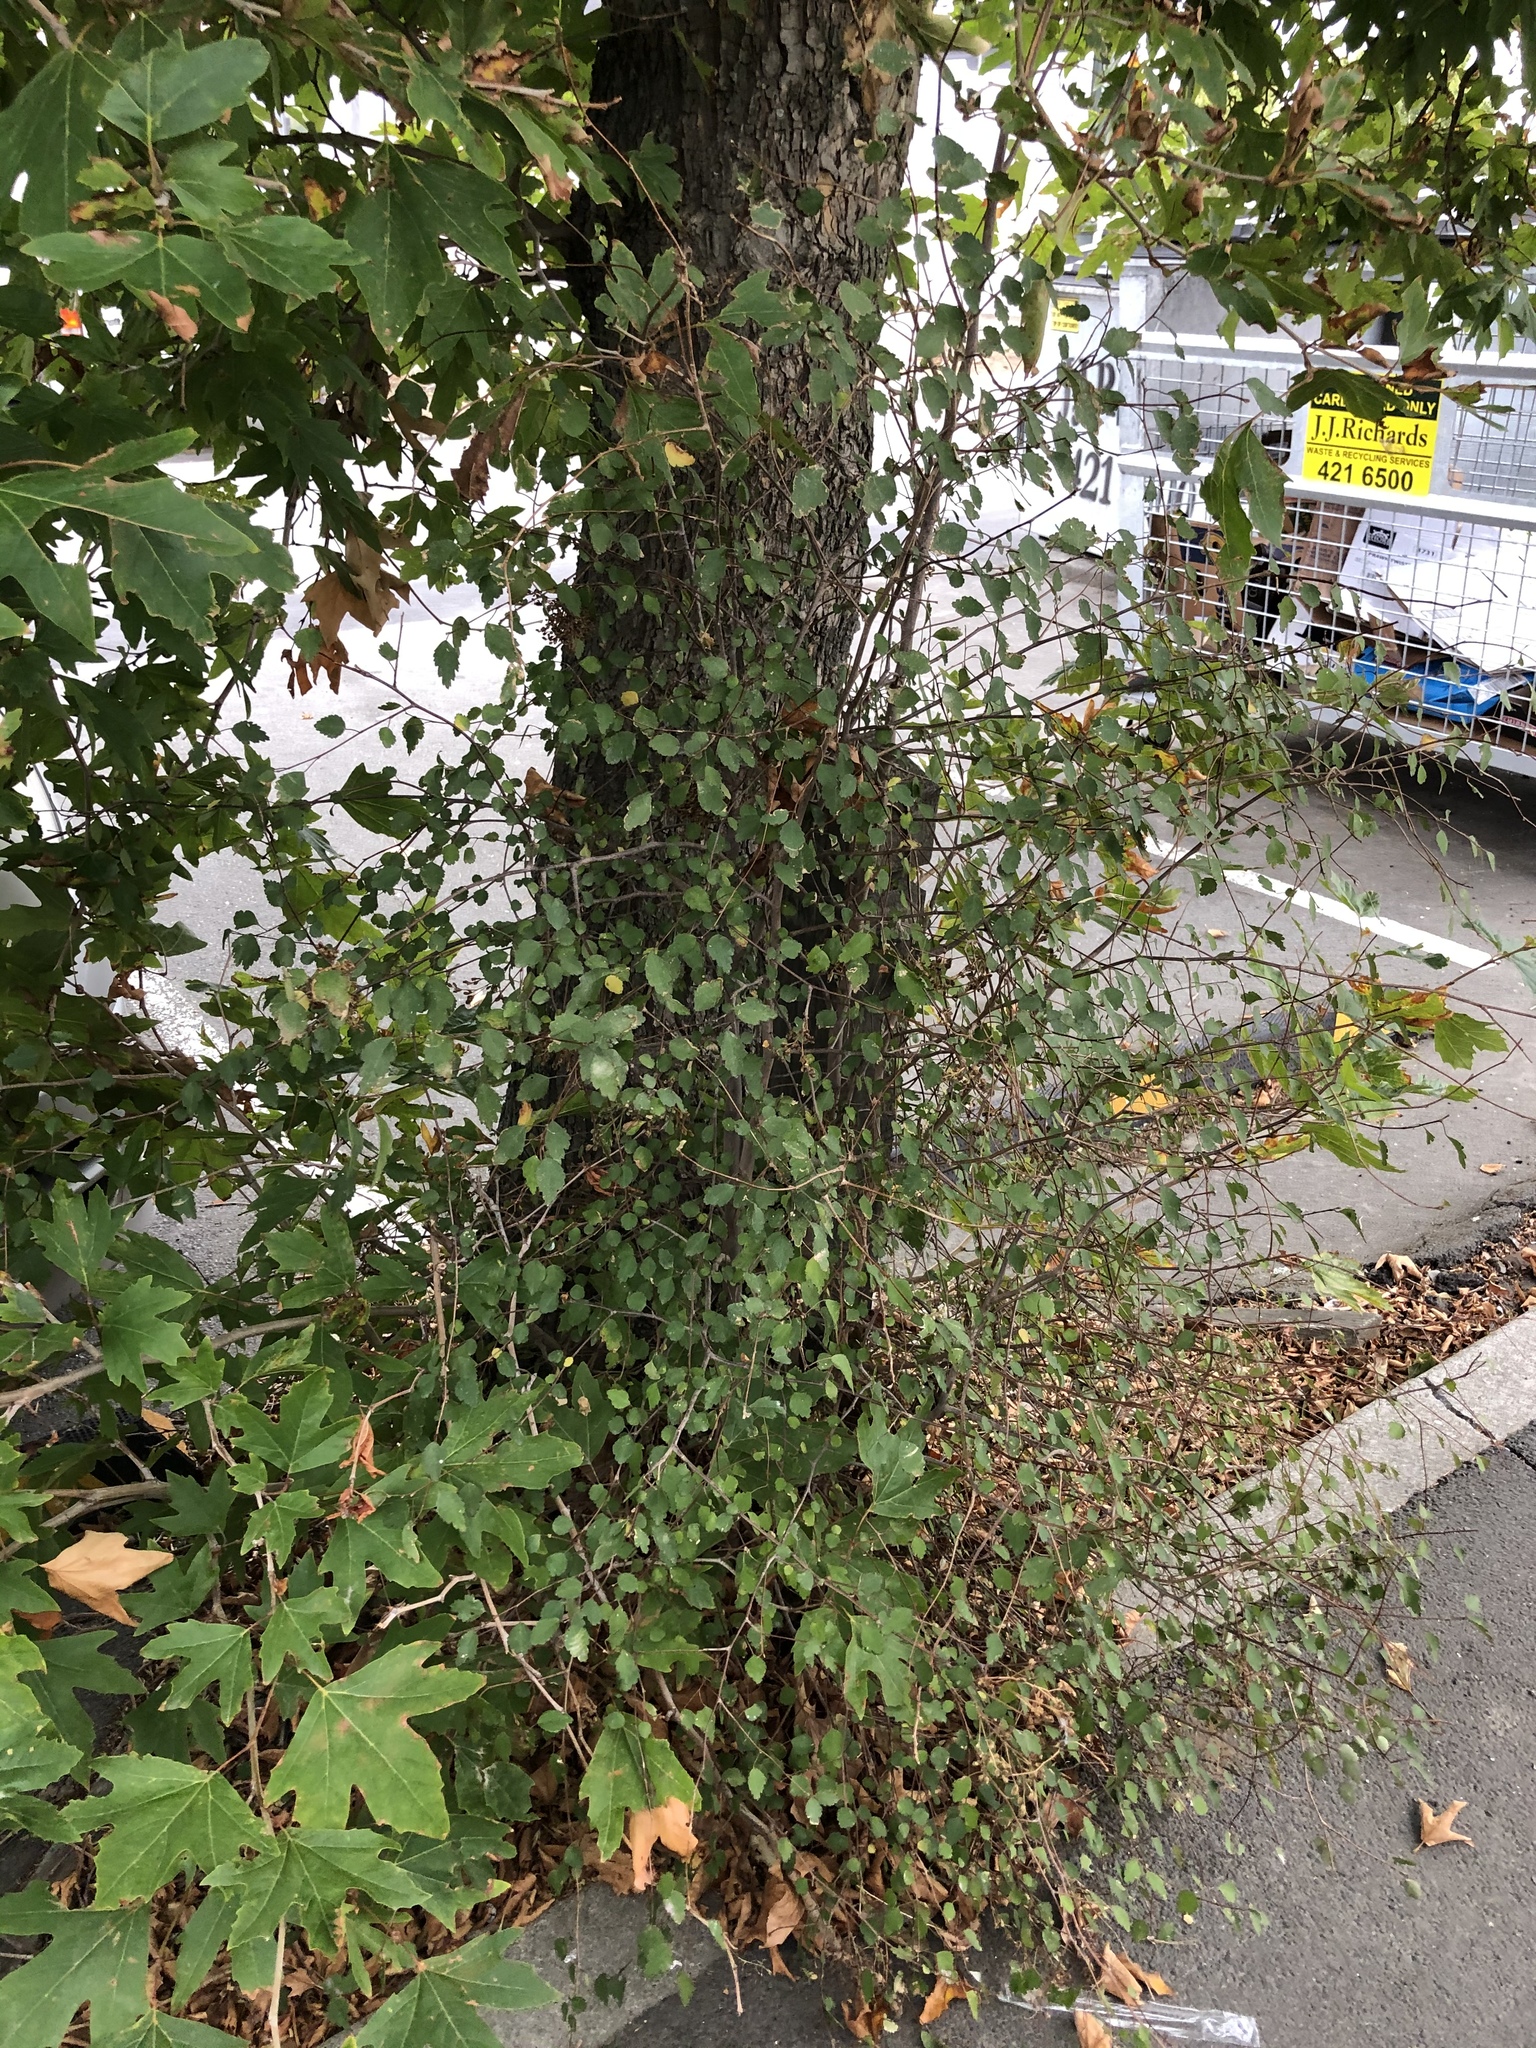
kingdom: Plantae
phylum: Tracheophyta
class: Magnoliopsida
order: Malvales
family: Malvaceae
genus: Plagianthus
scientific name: Plagianthus regius
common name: Manatu
